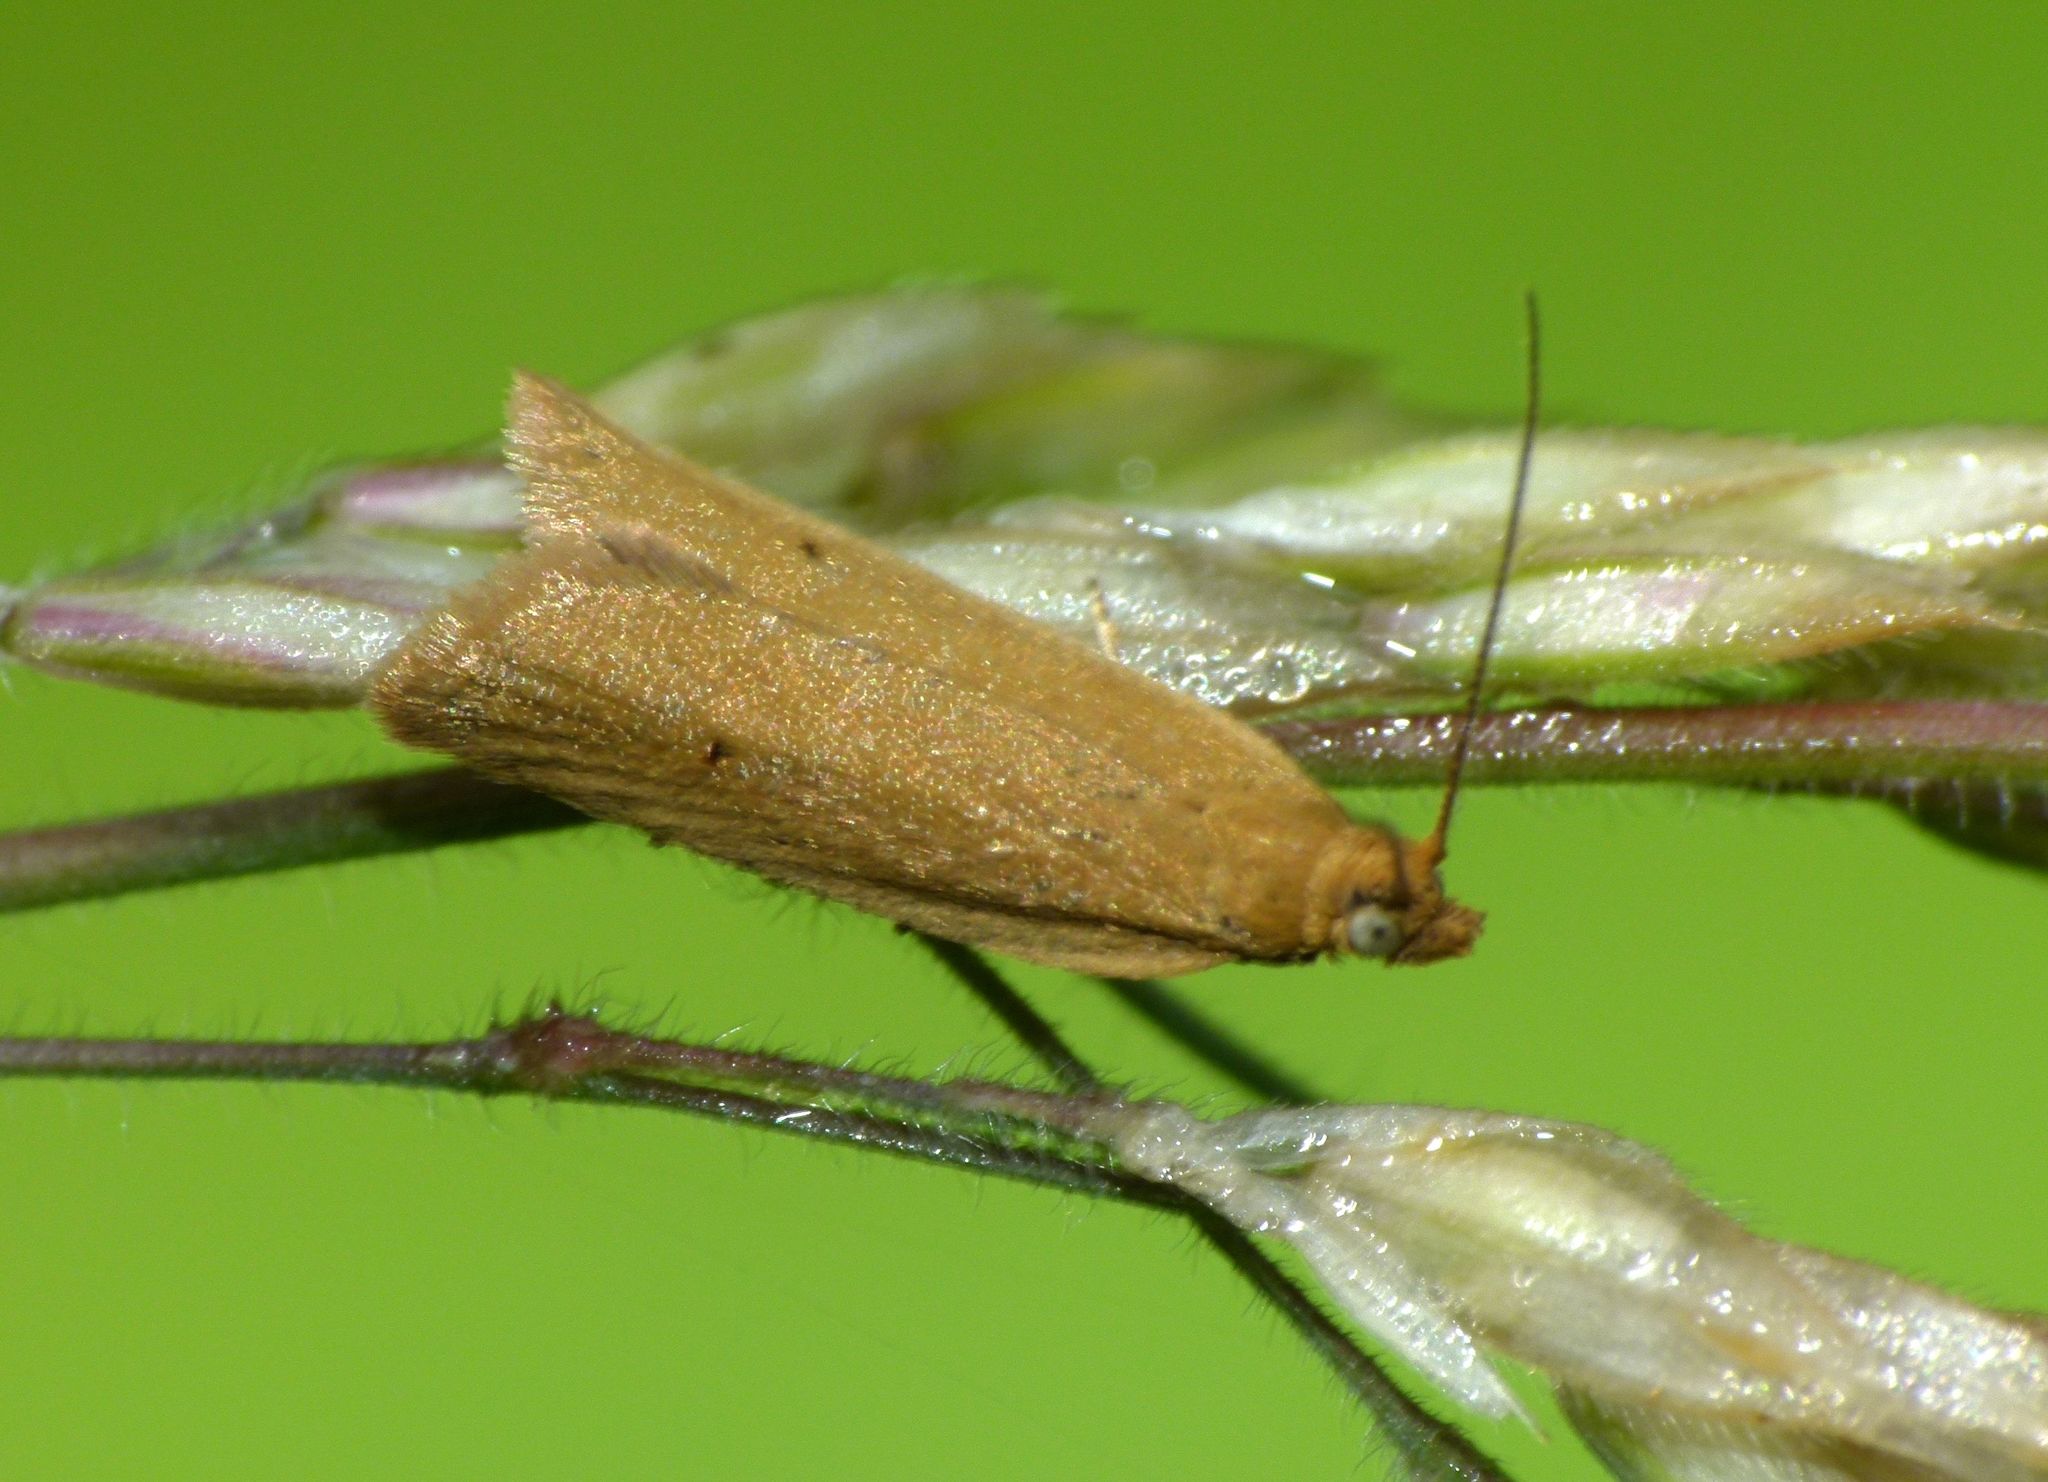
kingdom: Animalia
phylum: Arthropoda
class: Insecta
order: Lepidoptera
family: Tortricidae
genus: Epichorista
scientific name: Epichorista siriana
